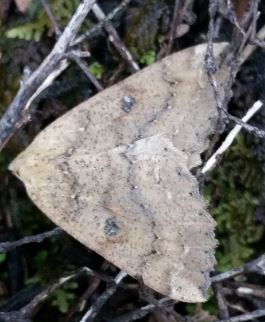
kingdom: Animalia
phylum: Arthropoda
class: Insecta
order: Lepidoptera
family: Geometridae
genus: Cleora
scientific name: Cleora scriptaria
